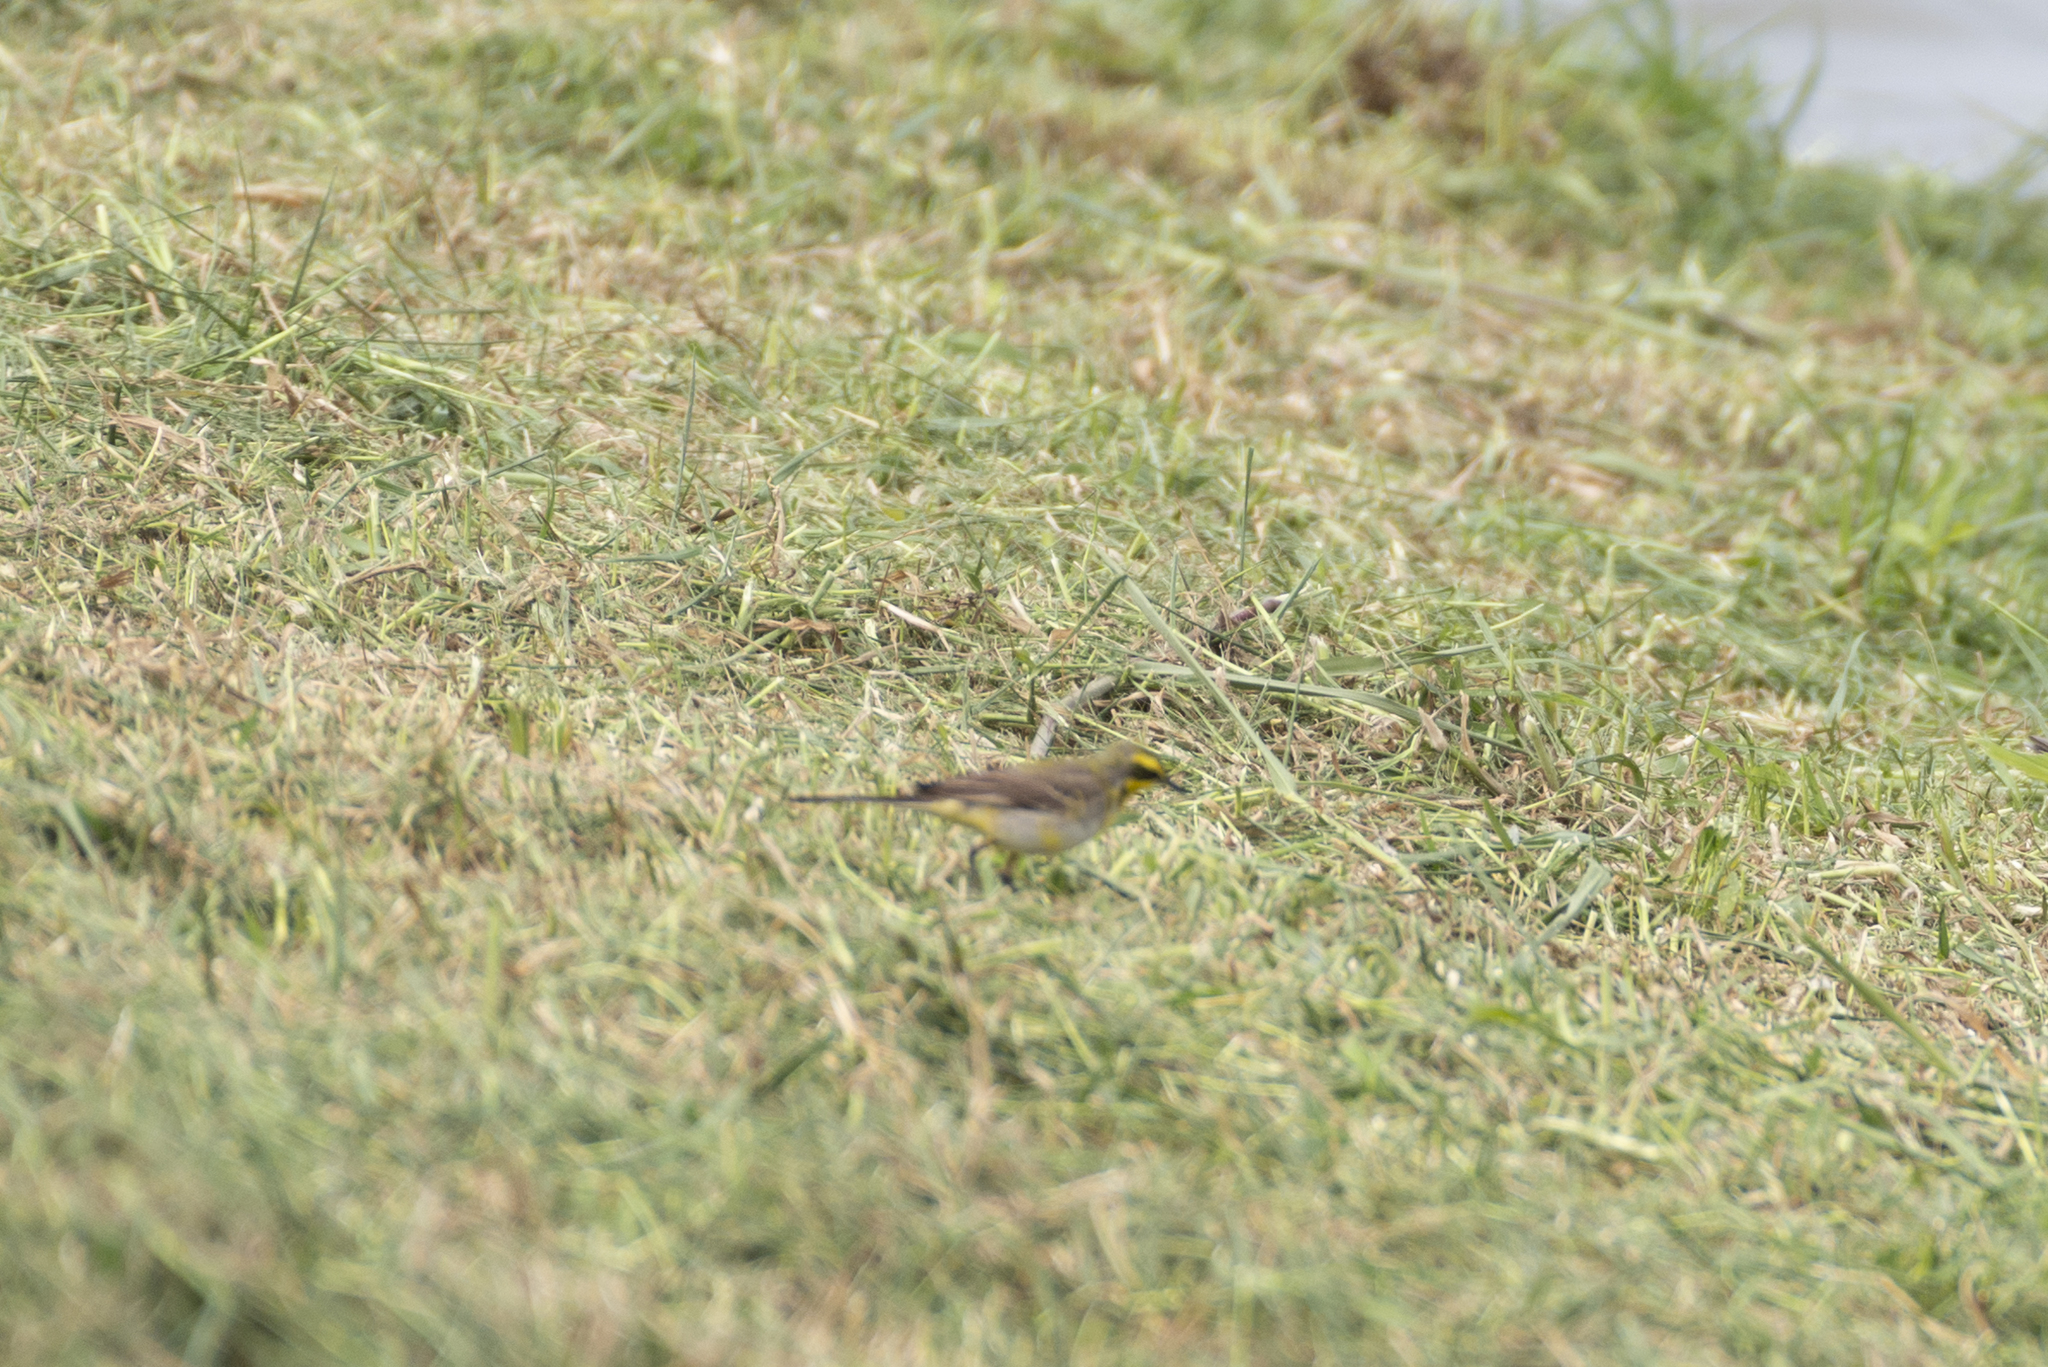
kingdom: Animalia
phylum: Chordata
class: Aves
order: Passeriformes
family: Motacillidae
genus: Motacilla
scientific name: Motacilla tschutschensis
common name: Eastern yellow wagtail
